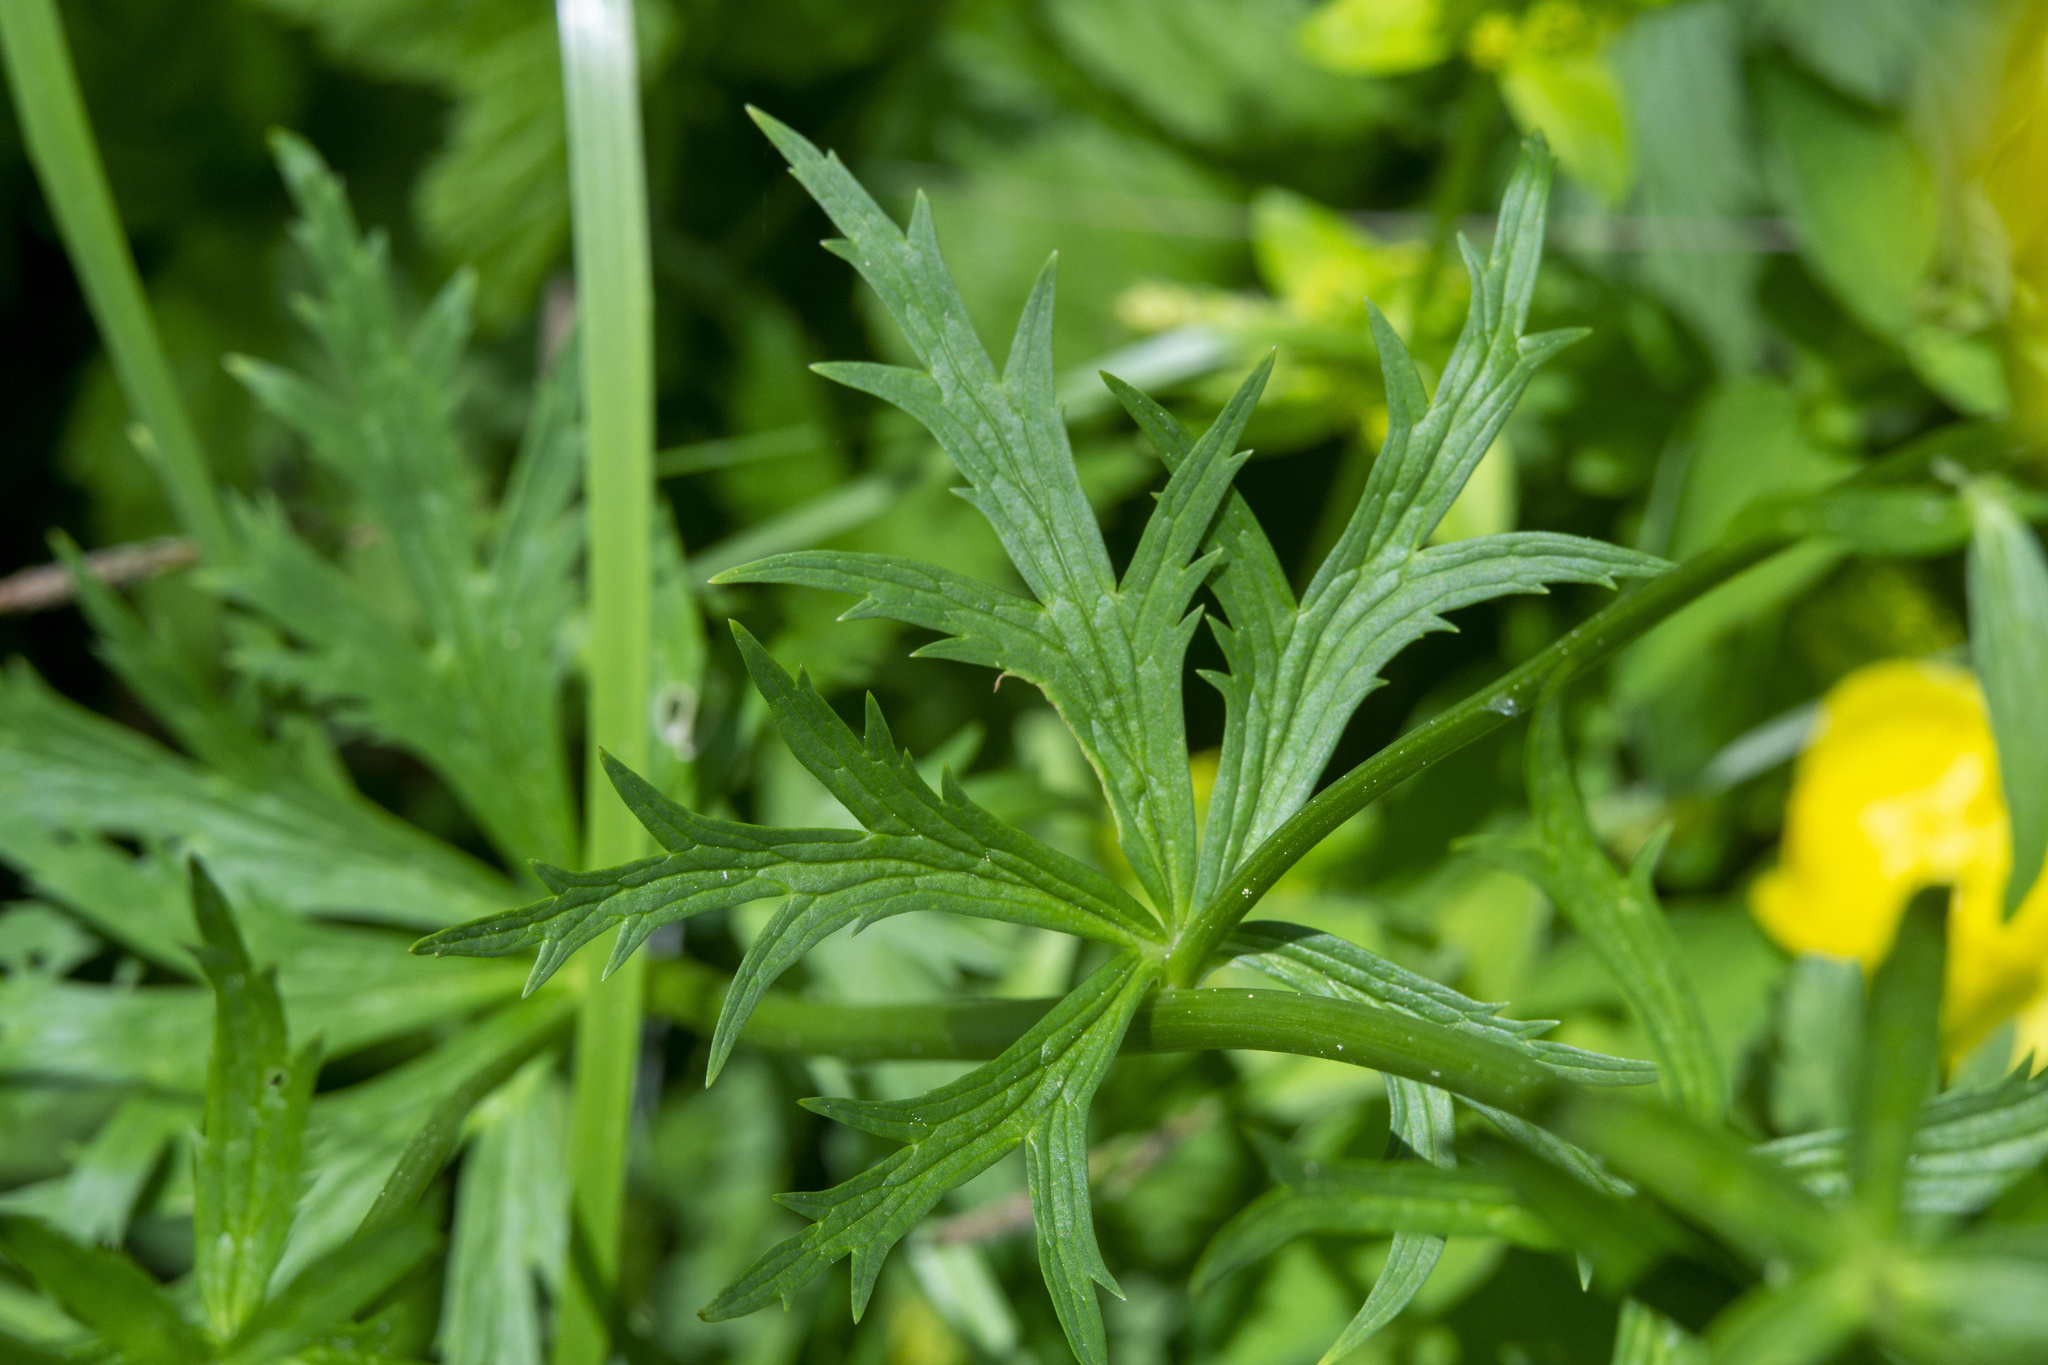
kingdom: Plantae
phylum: Tracheophyta
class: Magnoliopsida
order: Ranunculales
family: Ranunculaceae
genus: Trollius
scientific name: Trollius europaeus
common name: European globeflower
